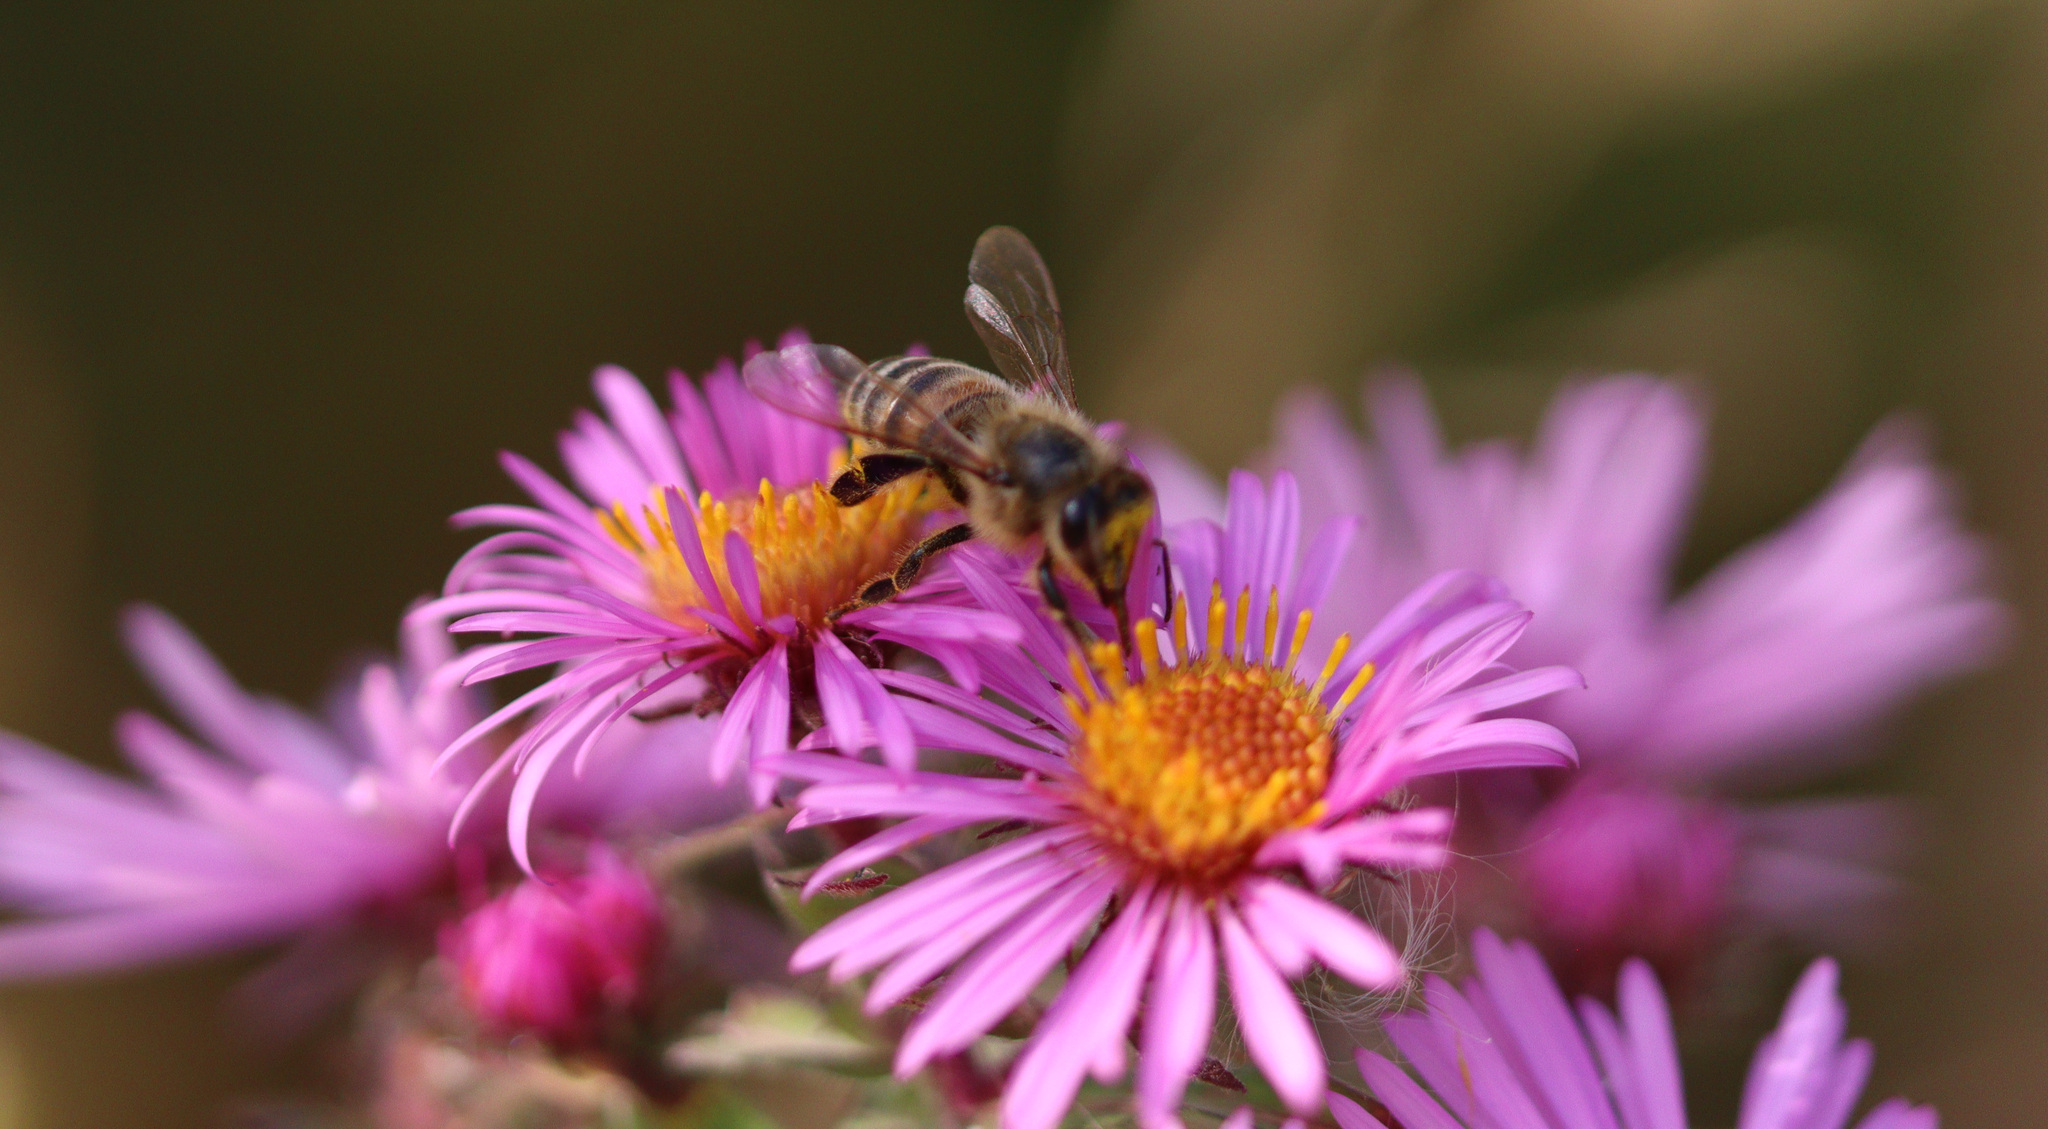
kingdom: Animalia
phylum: Arthropoda
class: Insecta
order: Hymenoptera
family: Apidae
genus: Apis
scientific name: Apis mellifera
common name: Honey bee
